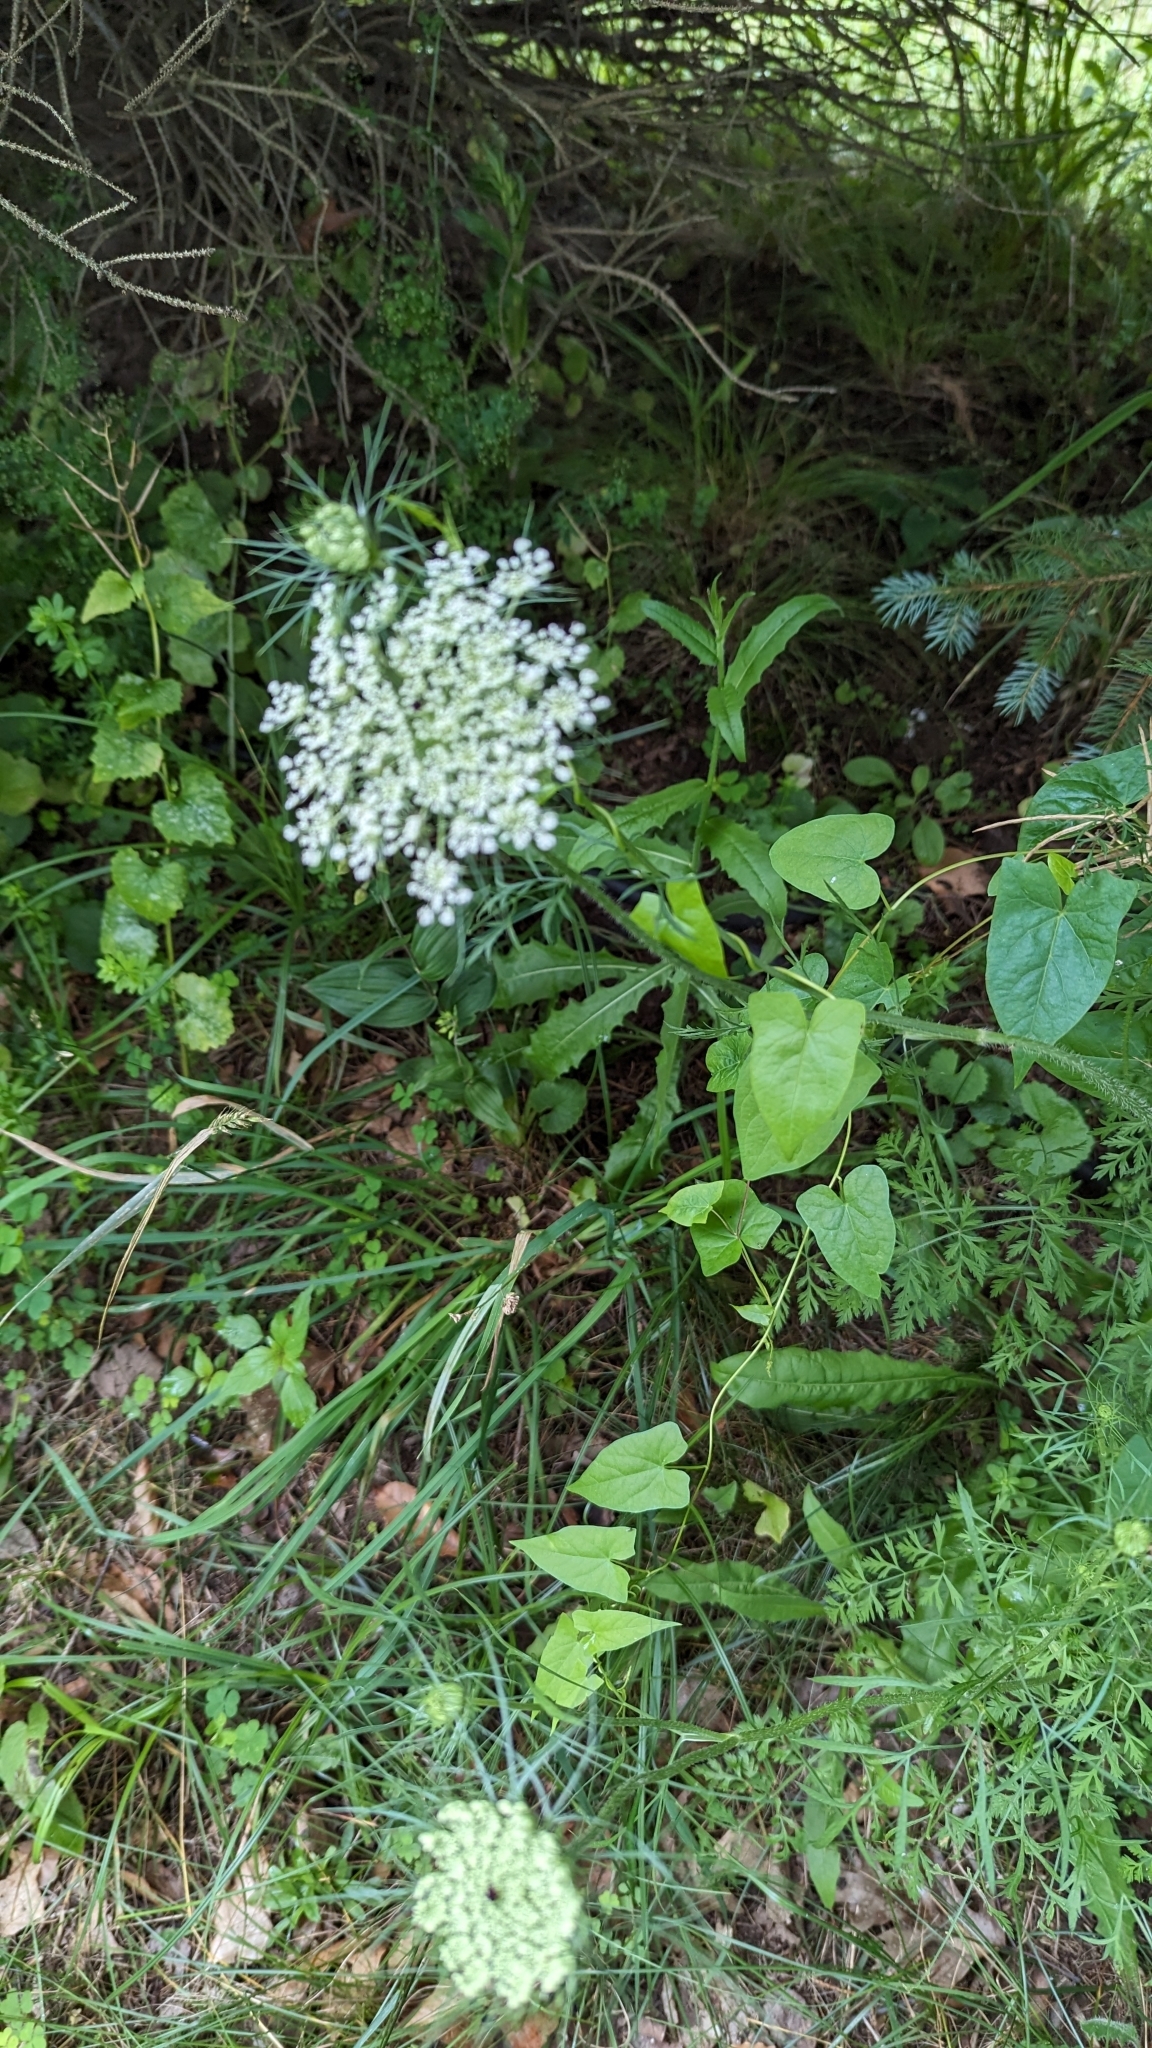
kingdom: Plantae
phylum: Tracheophyta
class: Magnoliopsida
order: Apiales
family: Apiaceae
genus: Daucus
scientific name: Daucus carota
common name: Wild carrot
